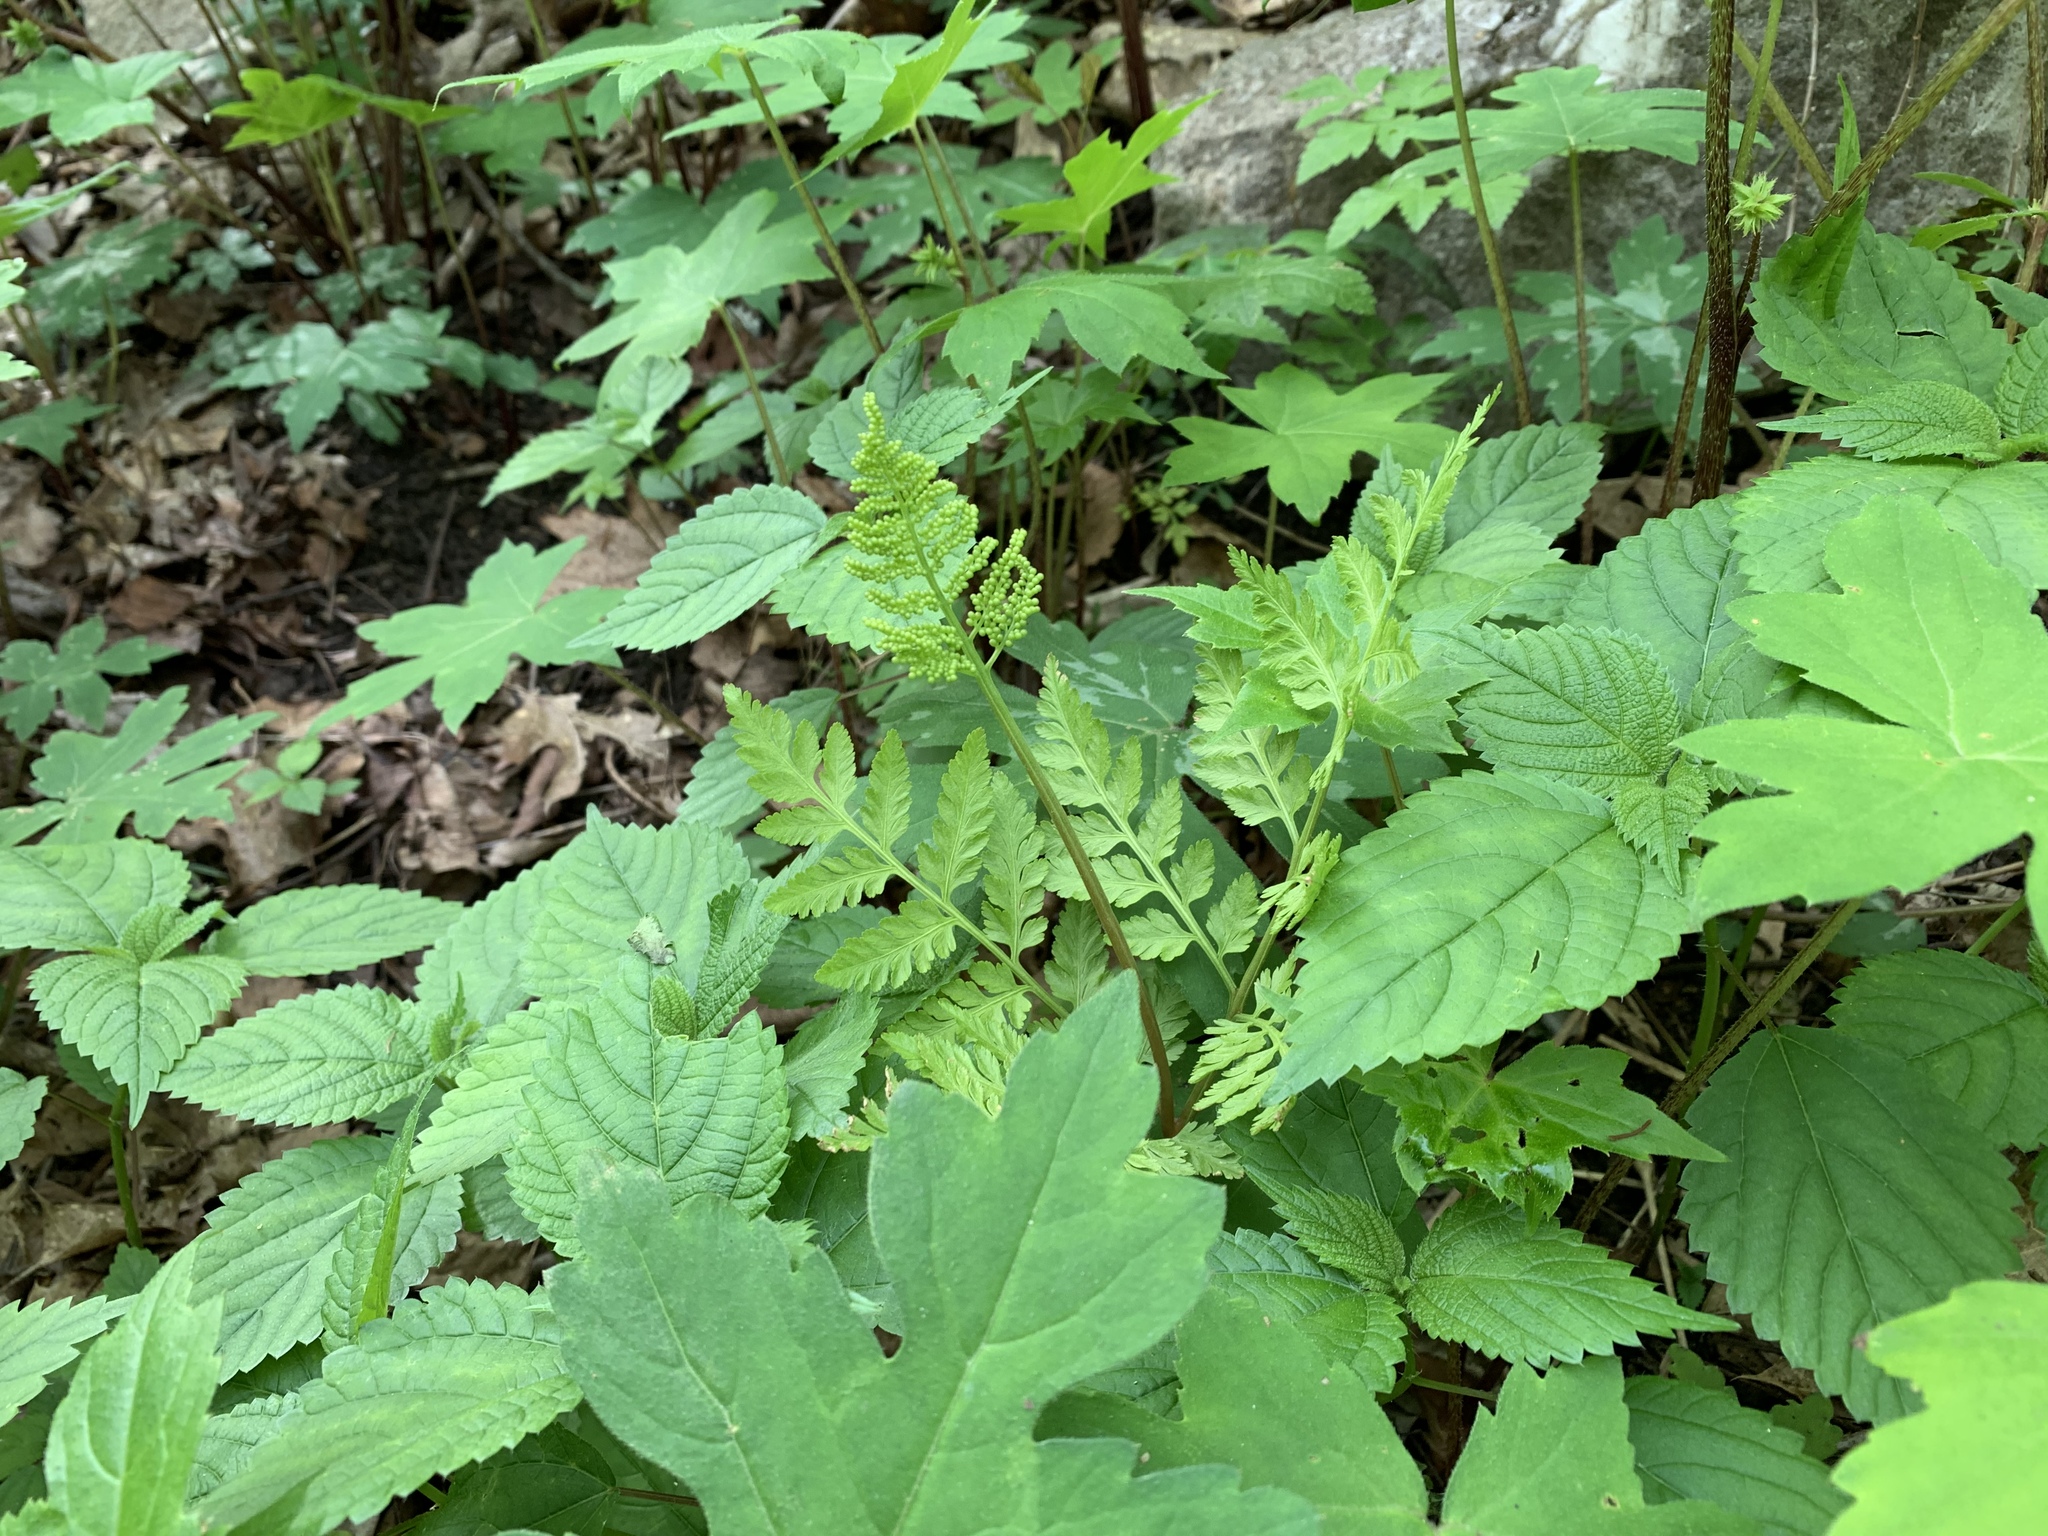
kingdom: Plantae
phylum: Tracheophyta
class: Polypodiopsida
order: Ophioglossales
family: Ophioglossaceae
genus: Botrypus
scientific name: Botrypus virginianus
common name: Common grapefern
